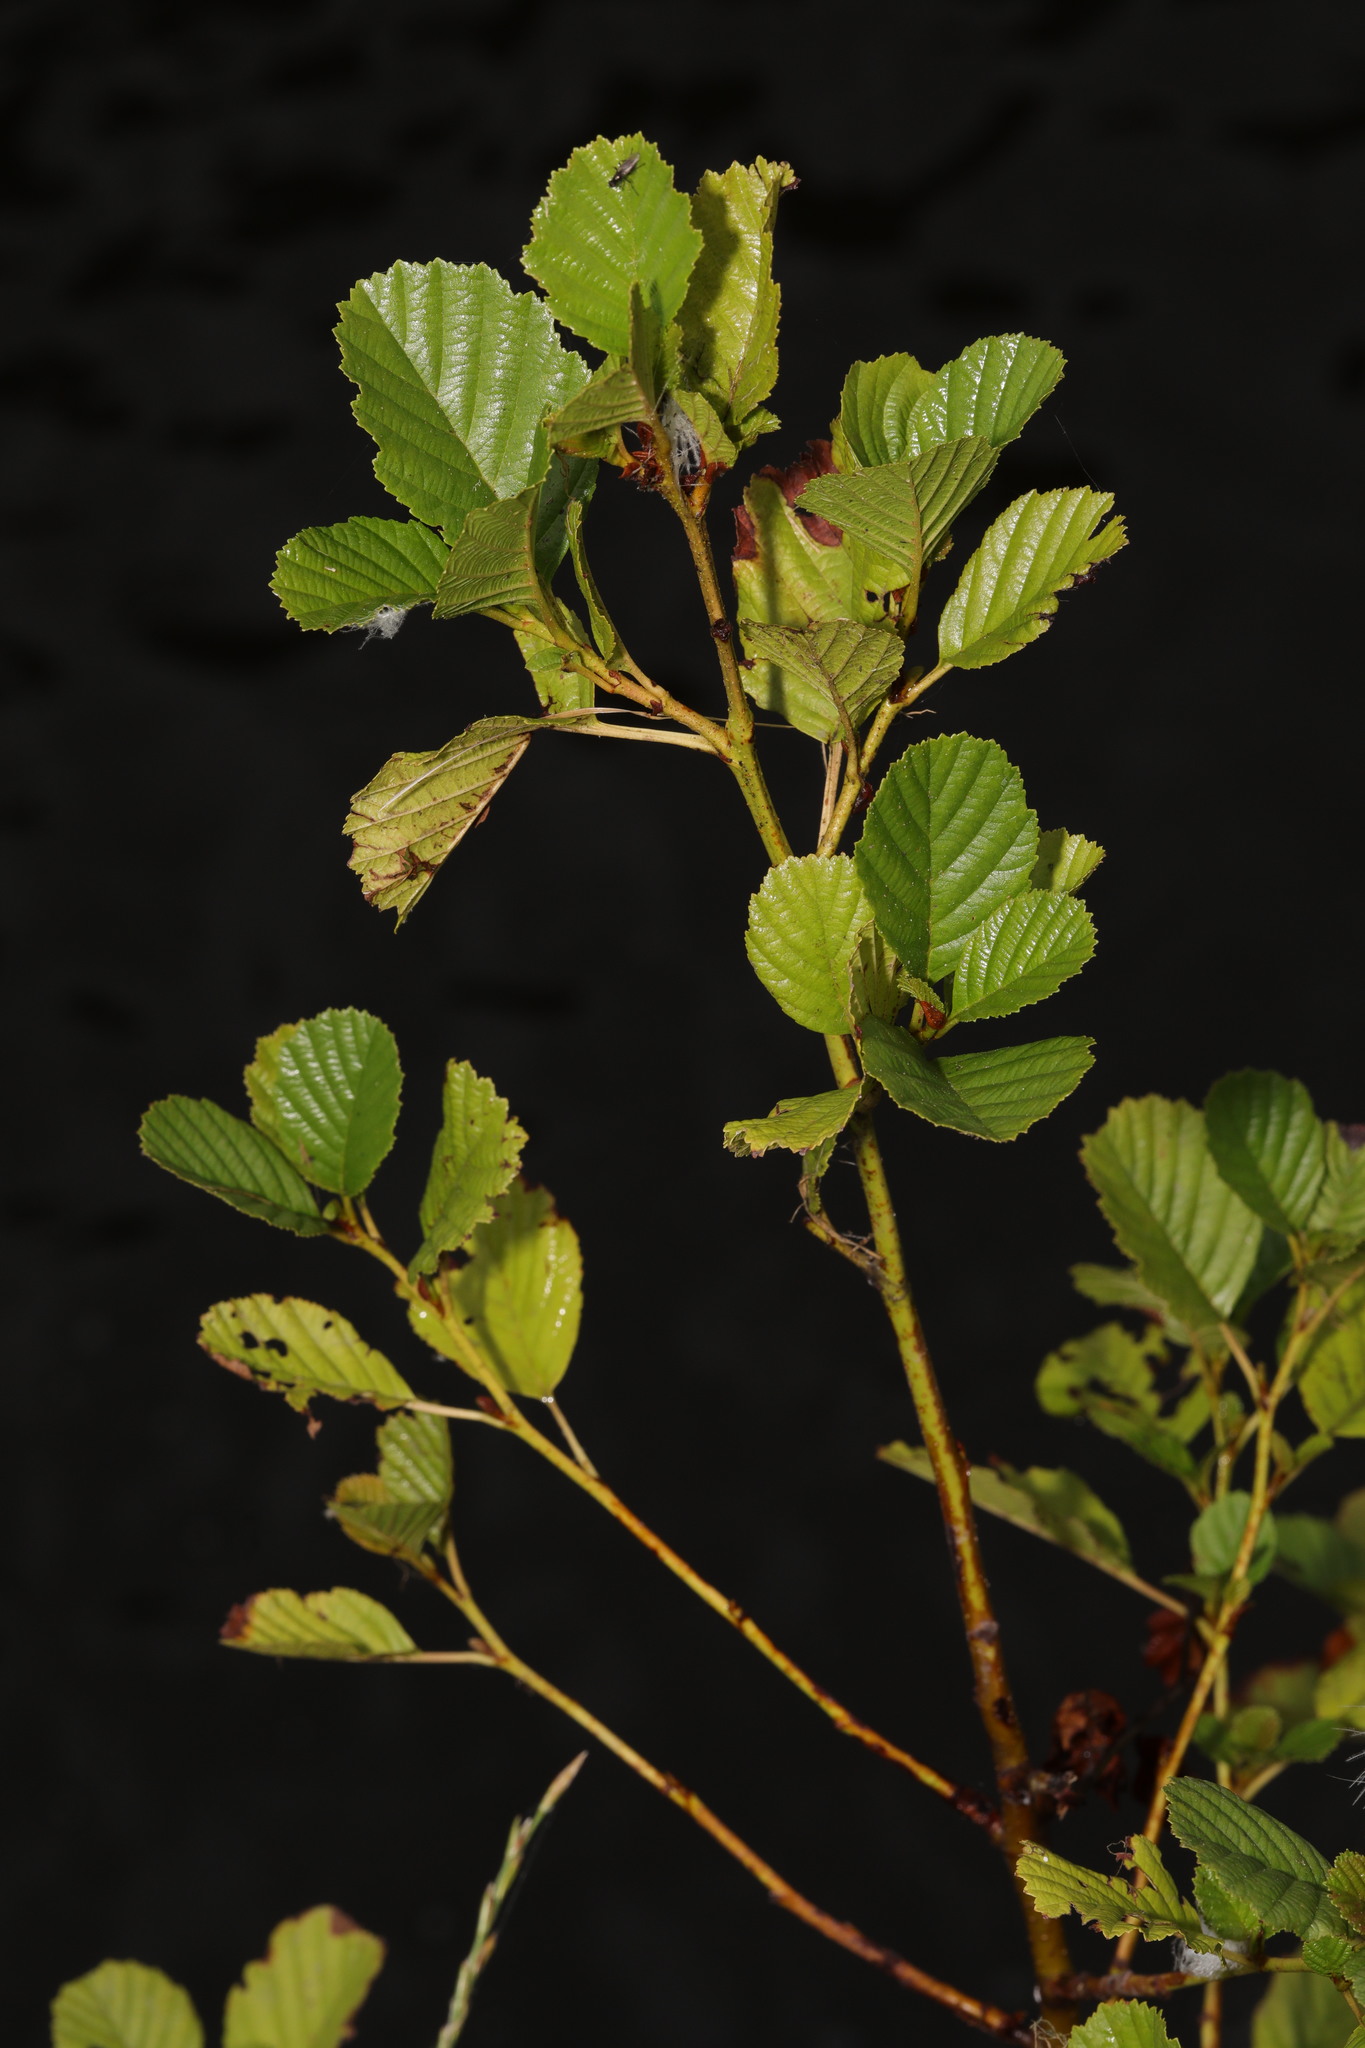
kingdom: Plantae
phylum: Tracheophyta
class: Magnoliopsida
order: Fagales
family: Betulaceae
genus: Alnus
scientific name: Alnus glutinosa
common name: Black alder
